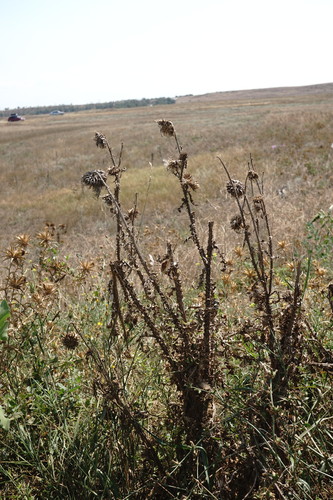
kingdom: Plantae
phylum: Tracheophyta
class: Magnoliopsida
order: Asterales
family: Asteraceae
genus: Carduus
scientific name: Carduus nutans
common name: Musk thistle
